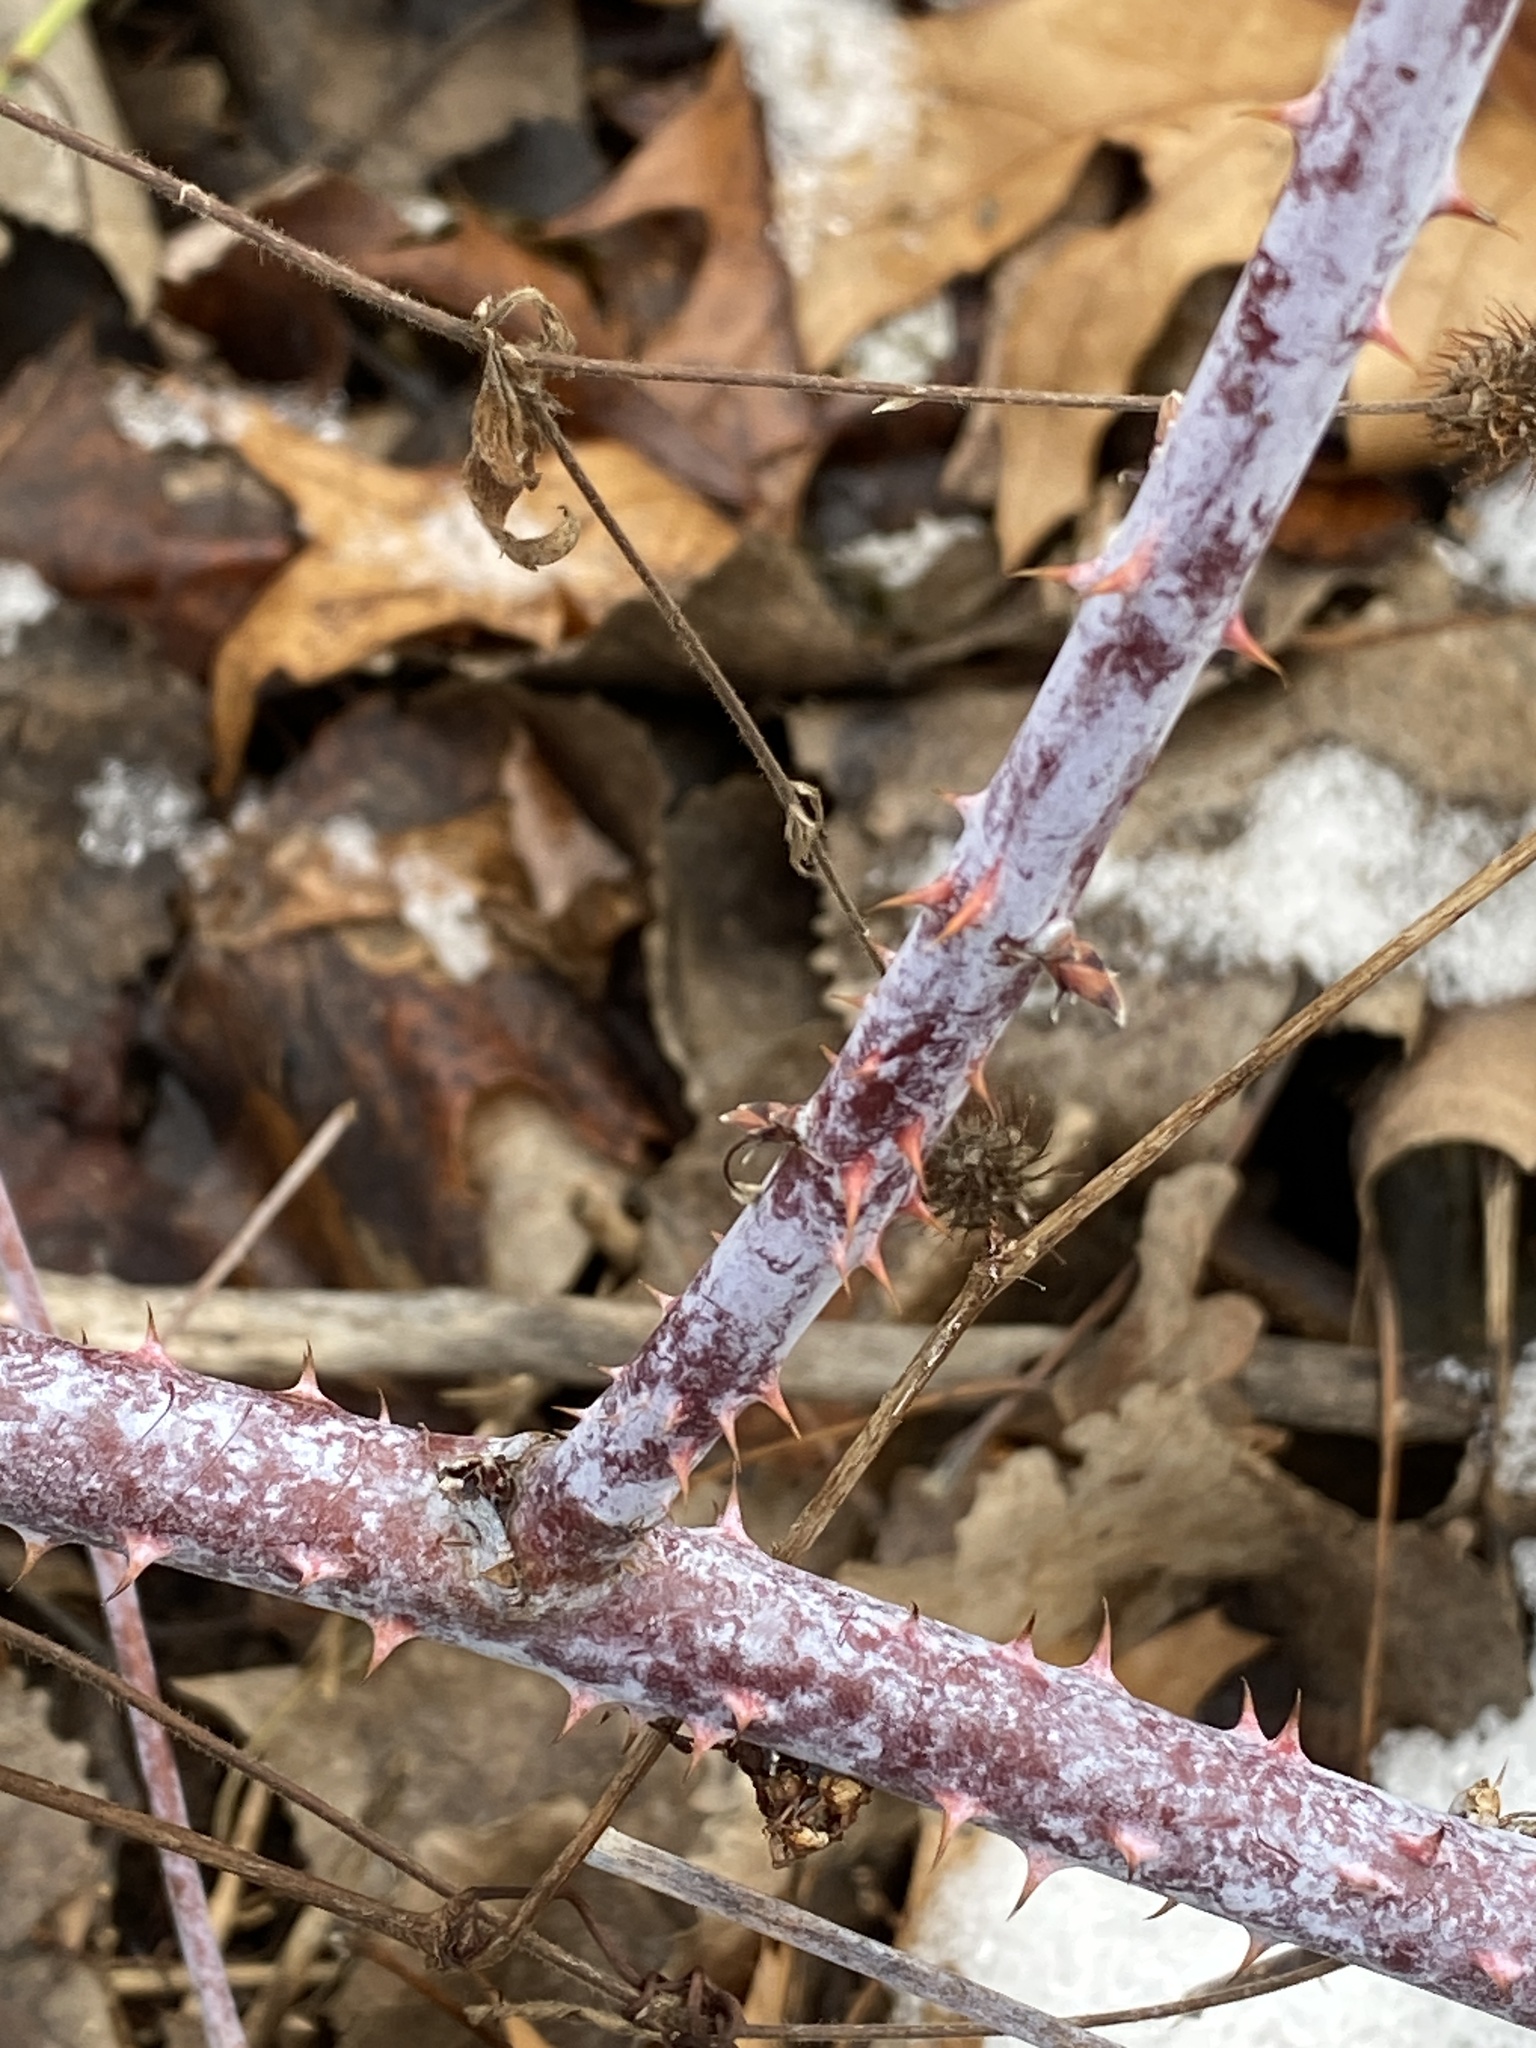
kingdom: Plantae
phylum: Tracheophyta
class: Magnoliopsida
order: Rosales
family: Rosaceae
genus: Rubus
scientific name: Rubus occidentalis
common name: Black raspberry
